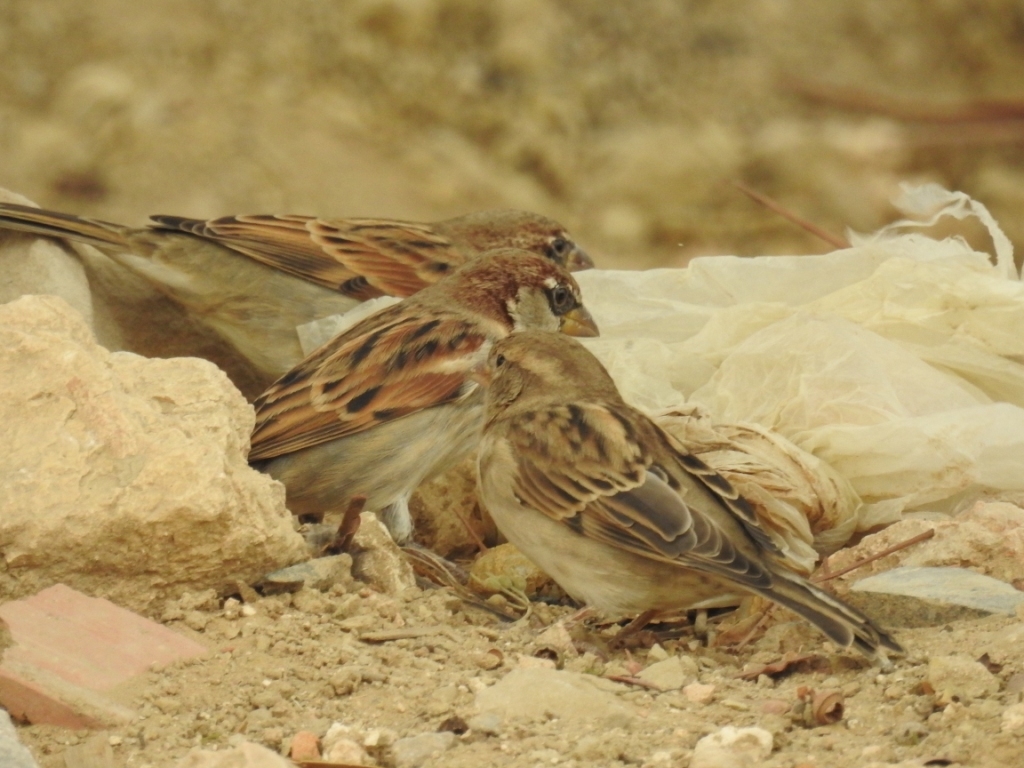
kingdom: Animalia
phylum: Chordata
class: Aves
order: Passeriformes
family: Passeridae
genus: Passer
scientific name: Passer domesticus
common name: House sparrow
